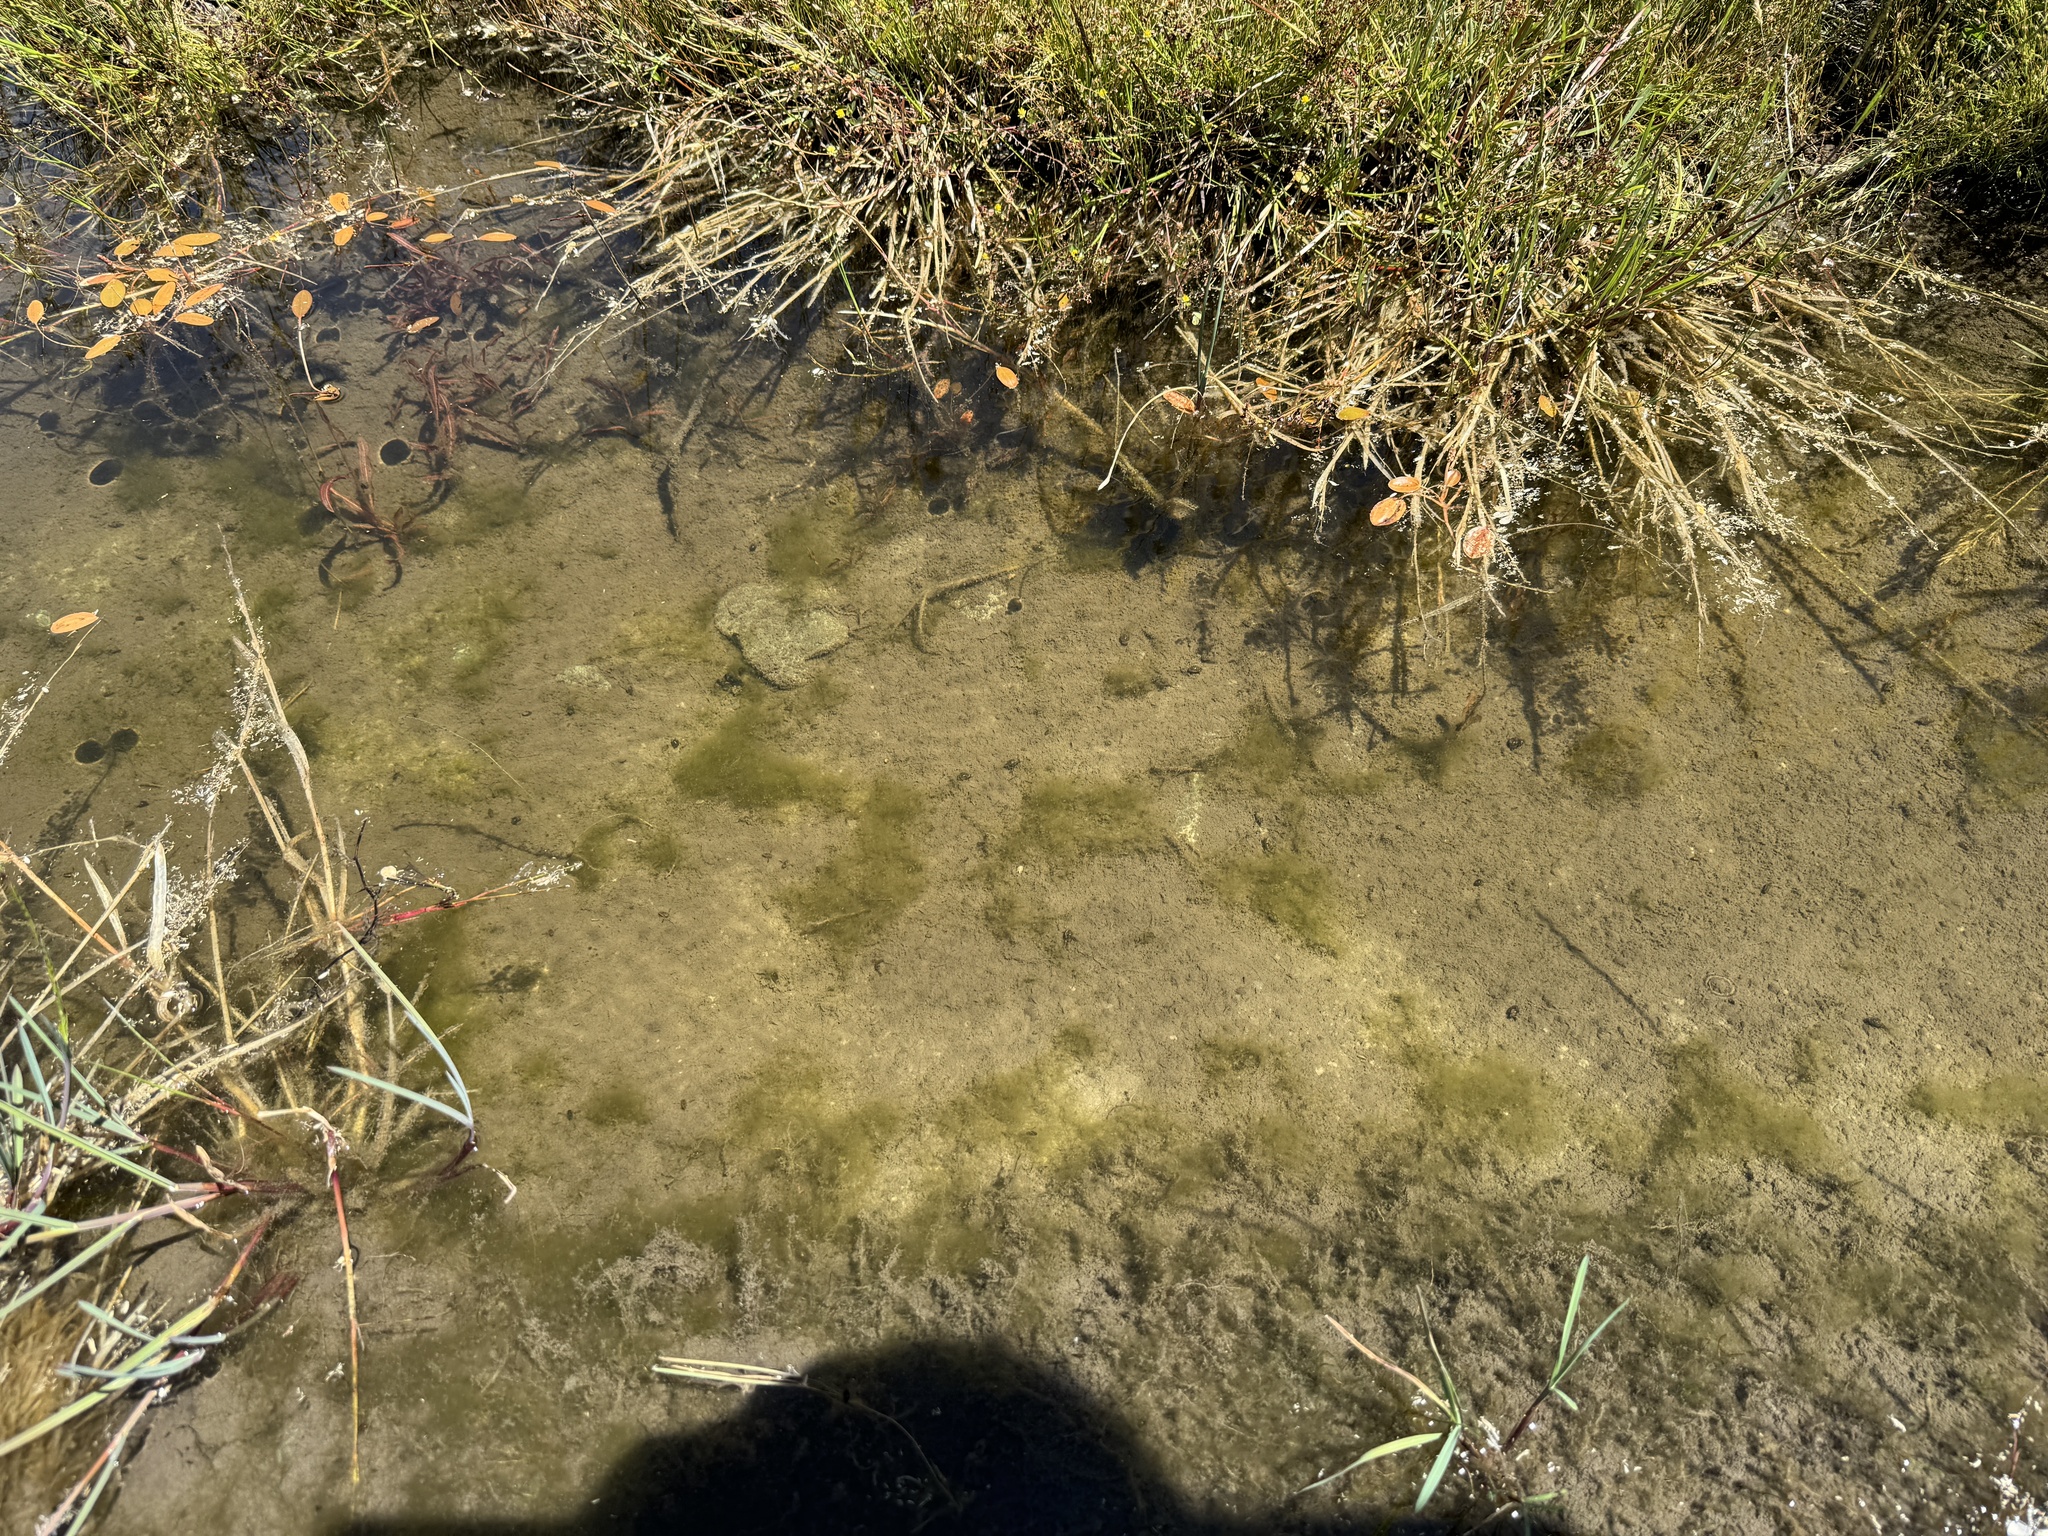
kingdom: Plantae
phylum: Charophyta
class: Zygnematophyceae
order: Zygnematales
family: Zygnemataceae
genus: Zygnema
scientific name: Zygnema
